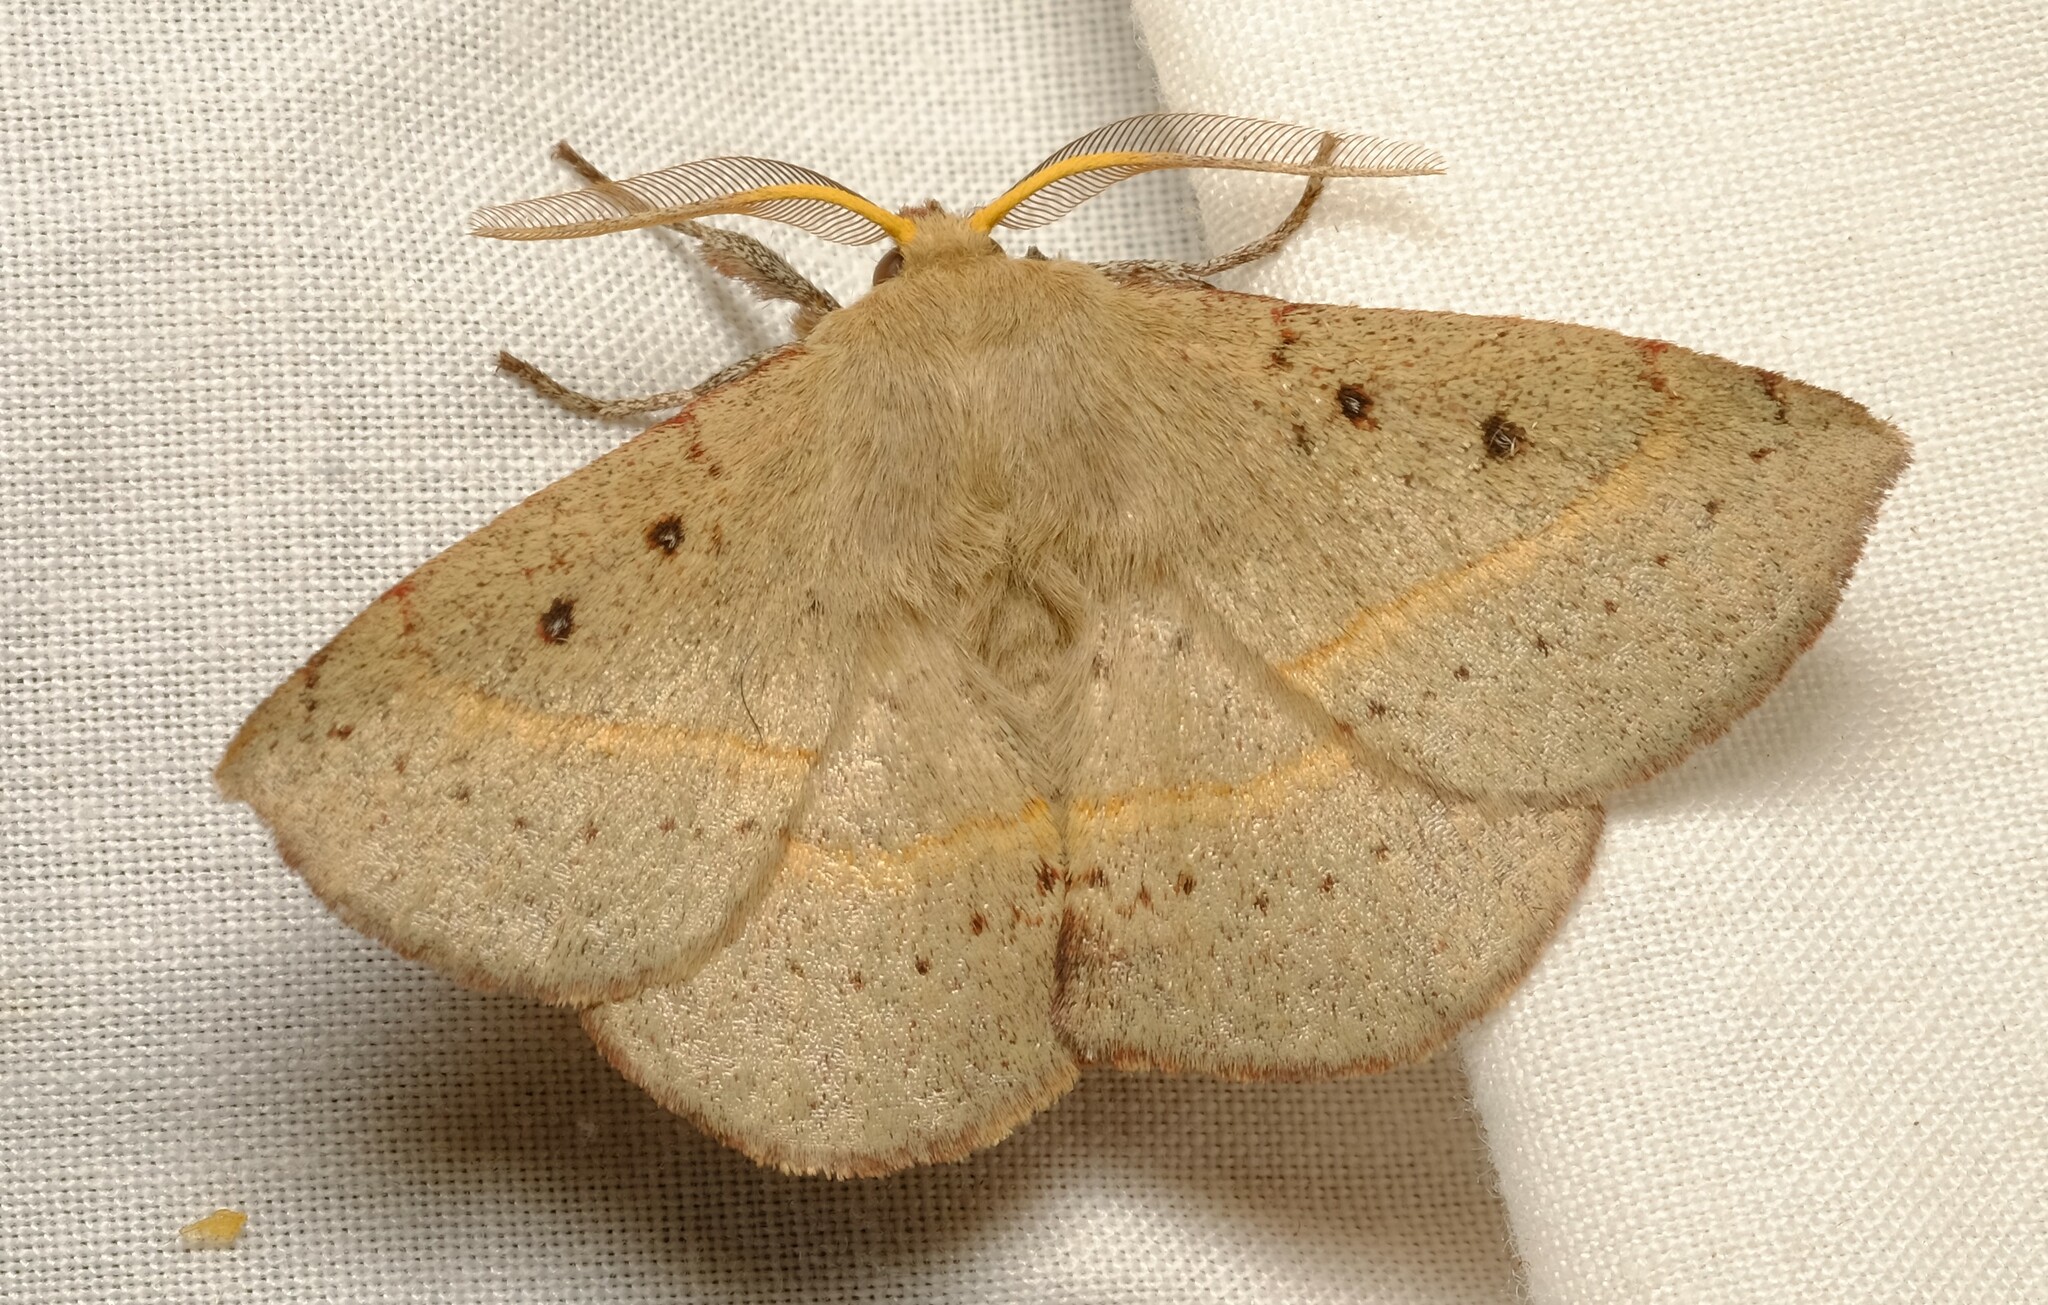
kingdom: Animalia
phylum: Arthropoda
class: Insecta
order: Lepidoptera
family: Anthelidae
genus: Anthela
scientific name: Anthela acuta
